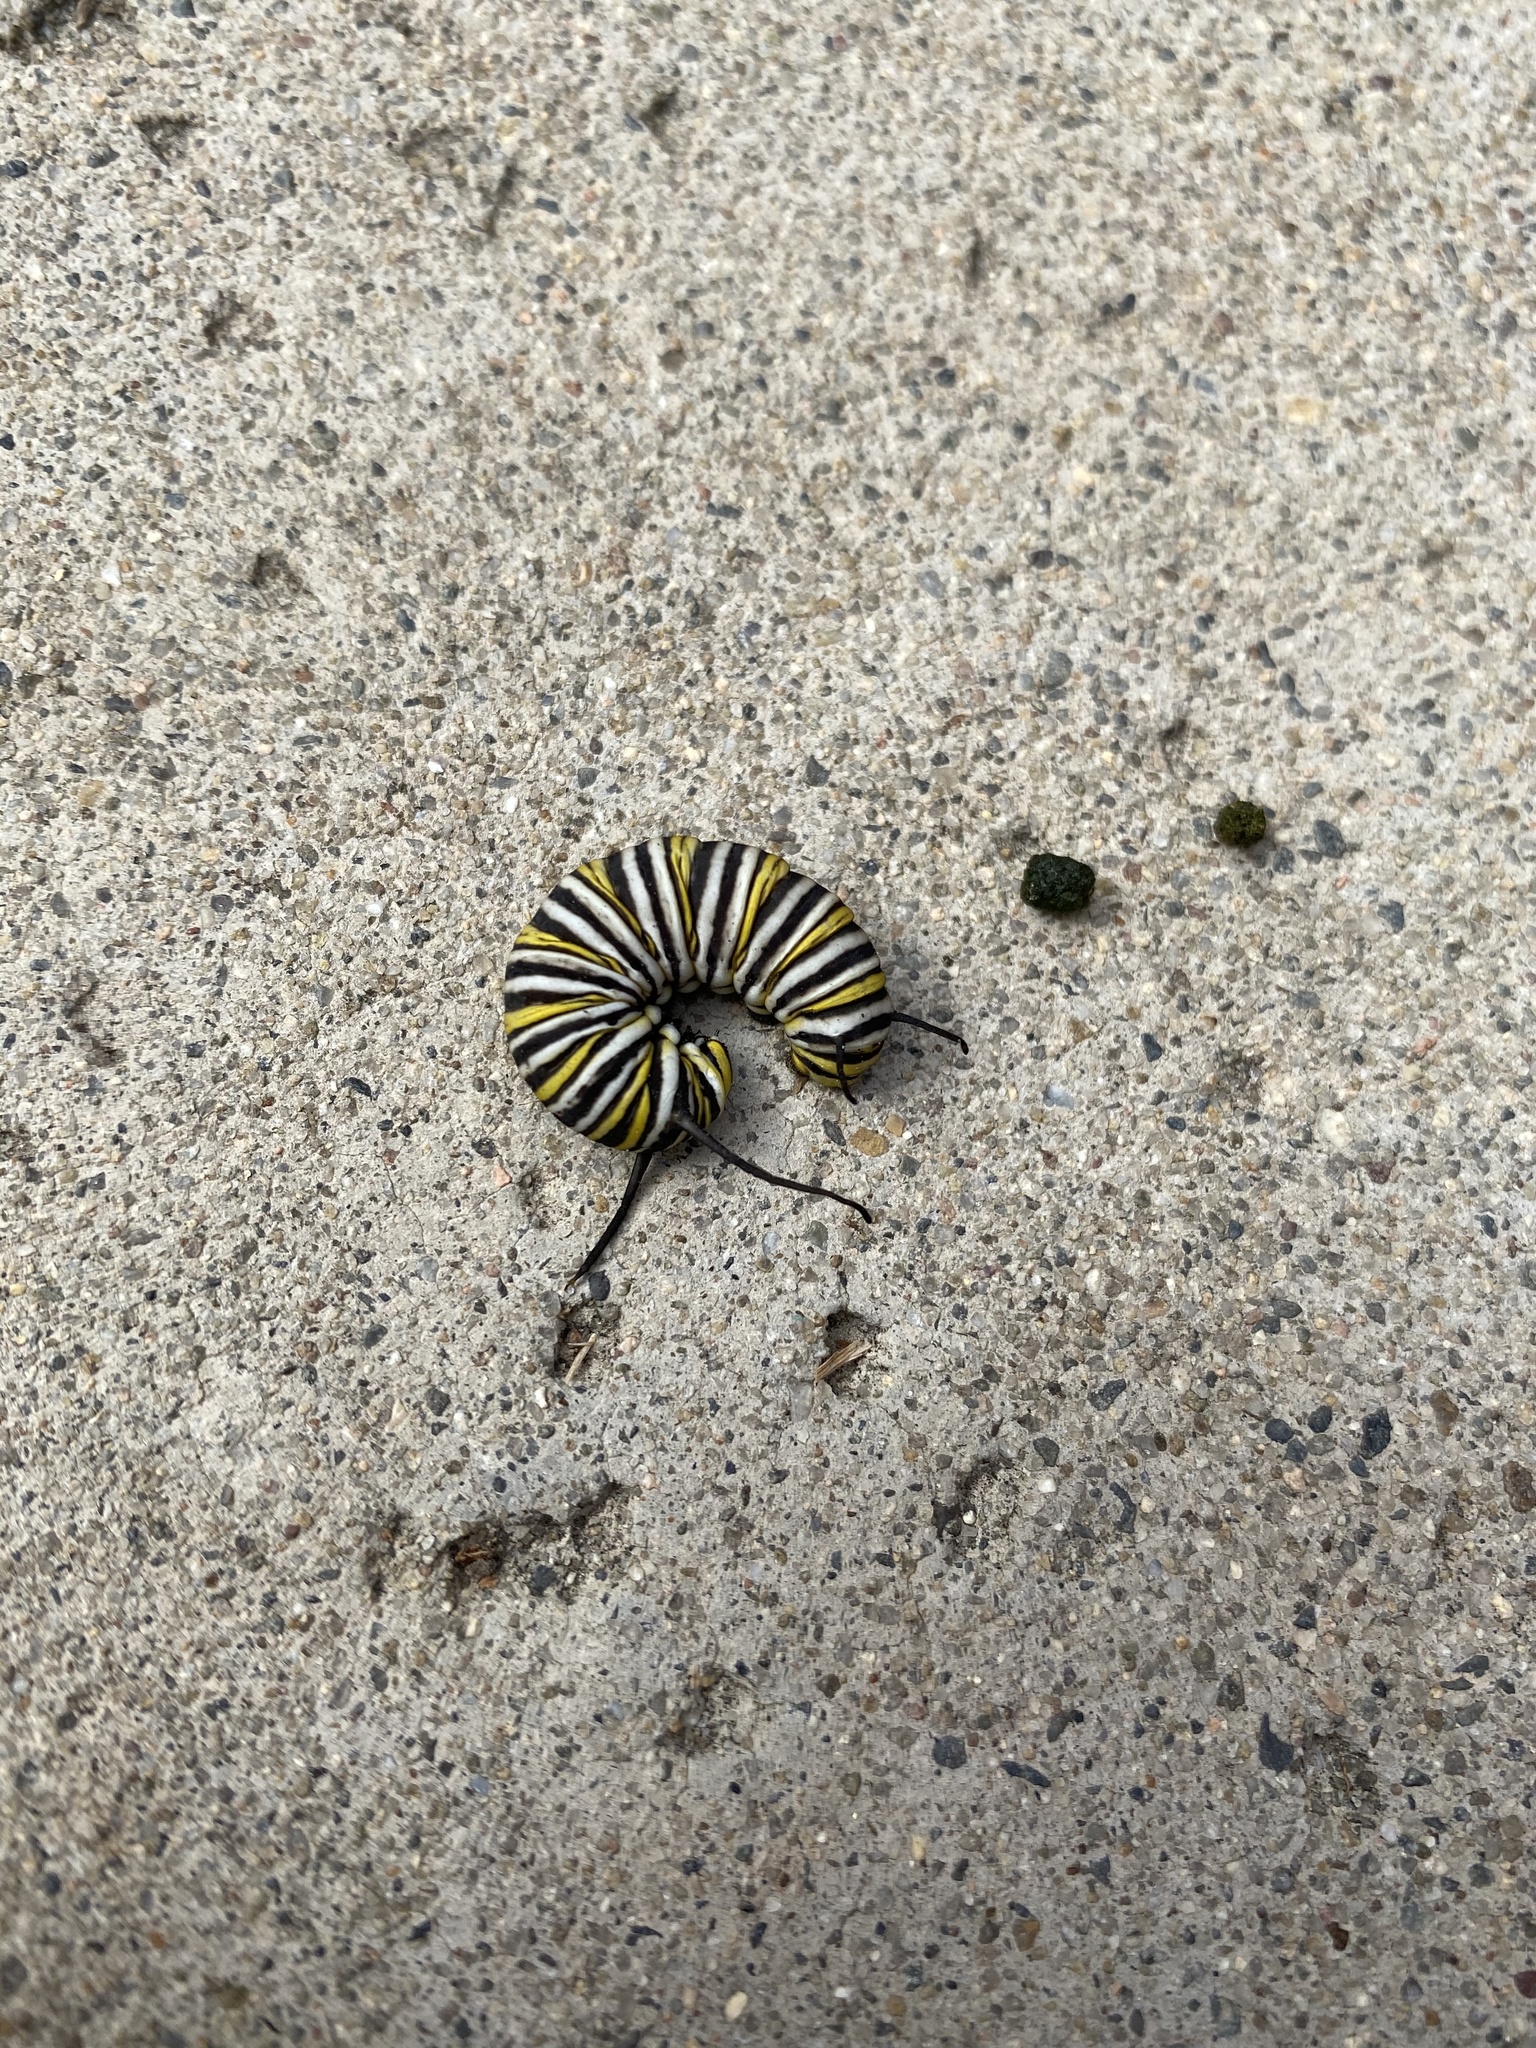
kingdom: Animalia
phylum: Arthropoda
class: Insecta
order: Lepidoptera
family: Nymphalidae
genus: Danaus
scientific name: Danaus plexippus
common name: Monarch
